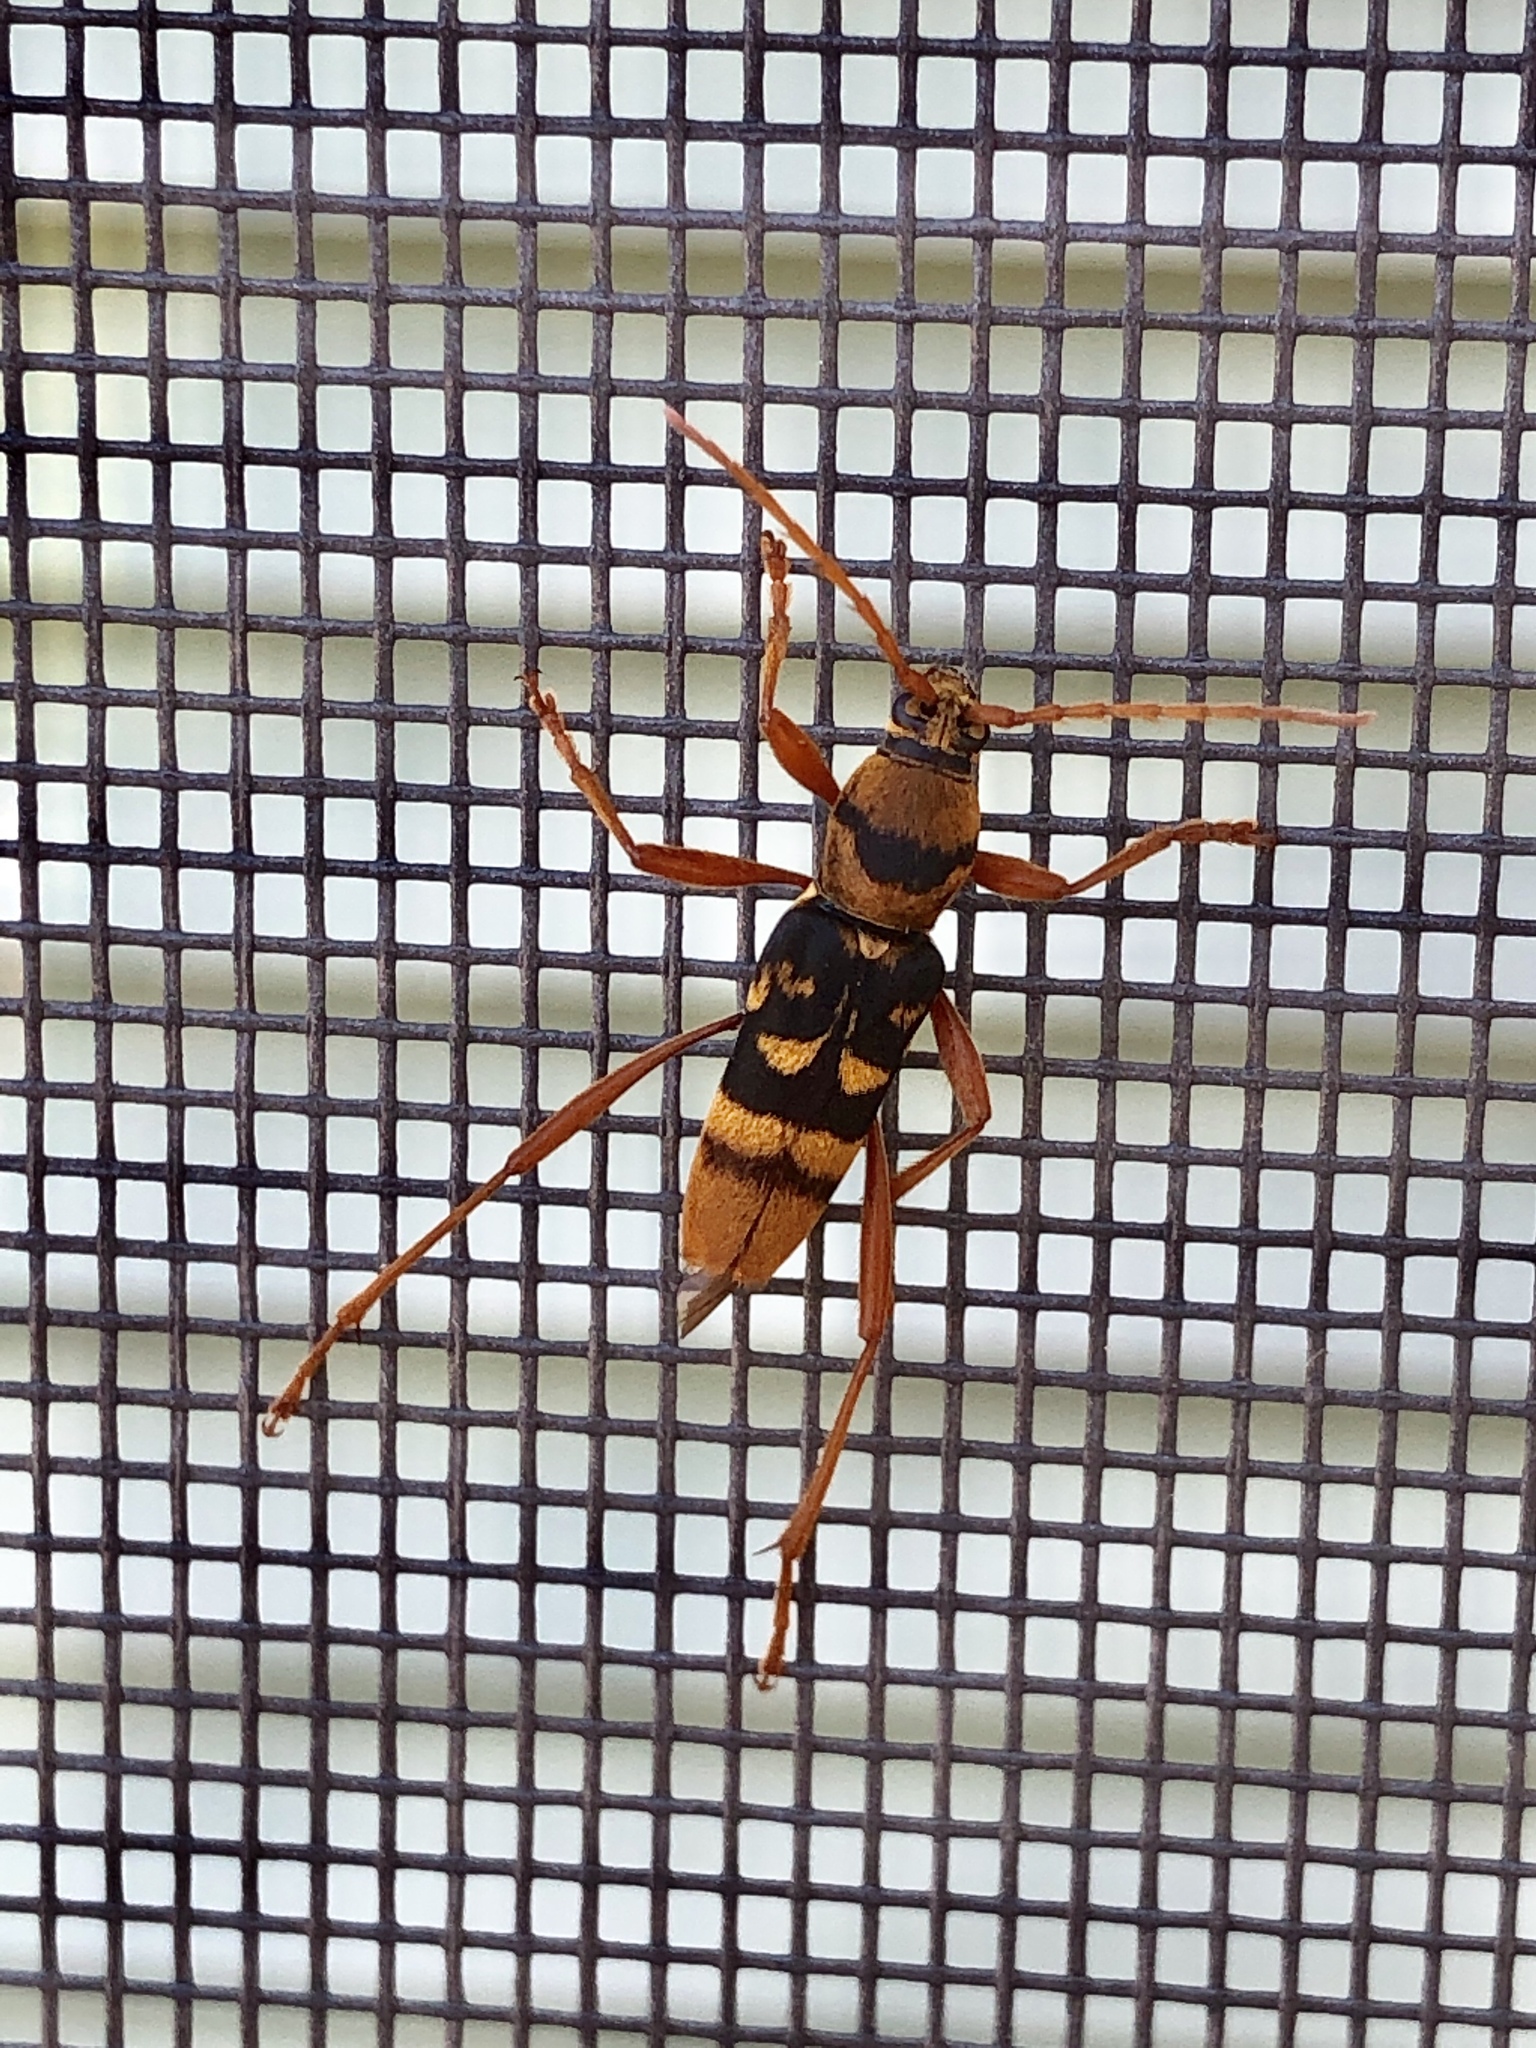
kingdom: Animalia
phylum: Arthropoda
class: Insecta
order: Coleoptera
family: Cerambycidae
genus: Chlorophorus
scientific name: Chlorophorus quinquefasciatus
